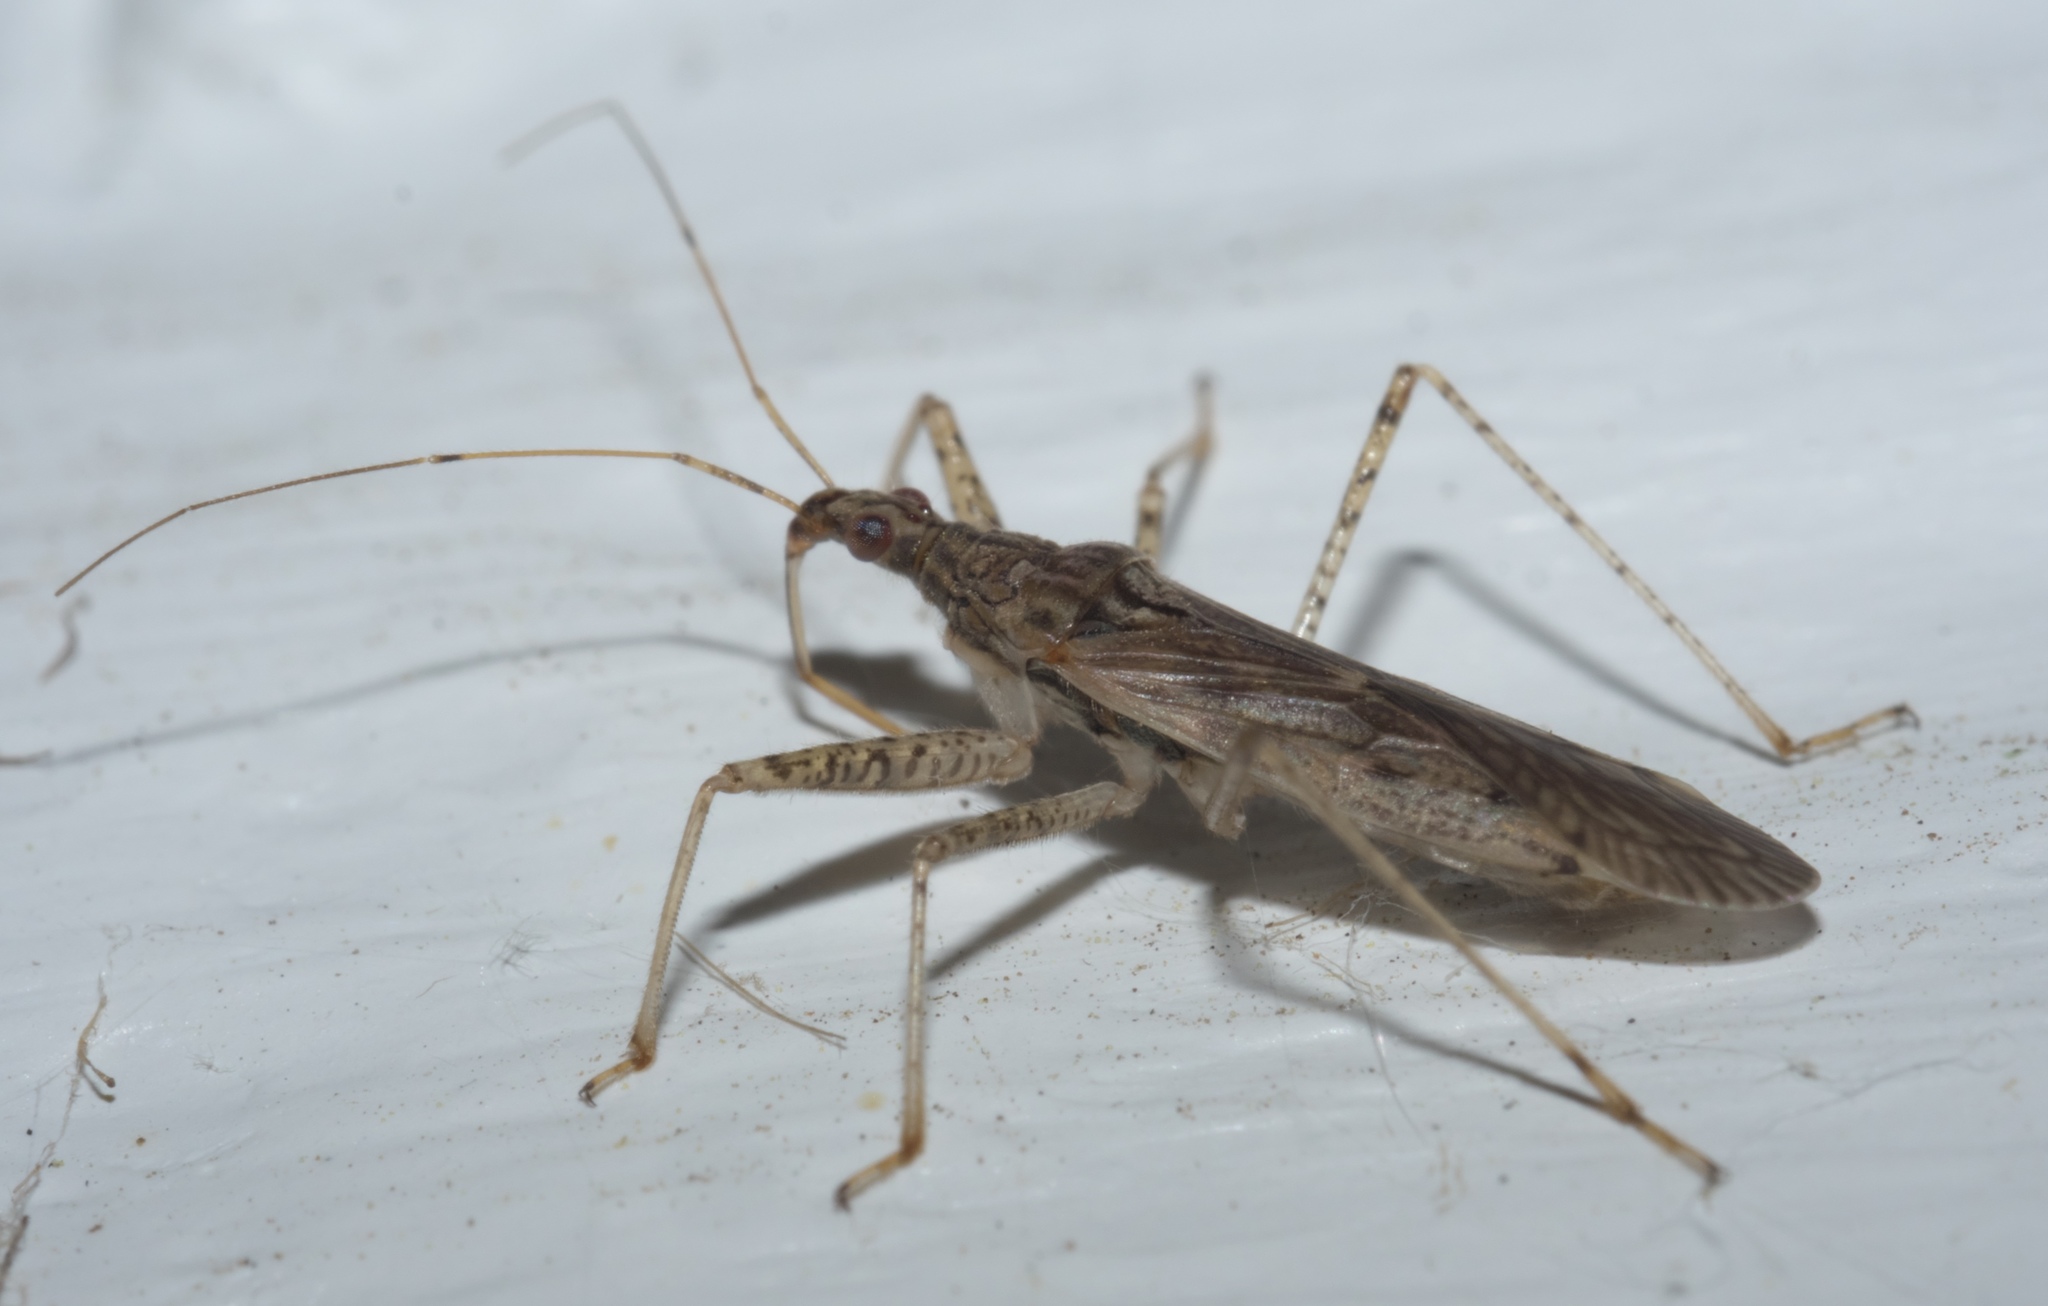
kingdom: Animalia
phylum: Arthropoda
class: Insecta
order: Hemiptera
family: Nabidae
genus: Nabis
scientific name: Nabis roseipennis
